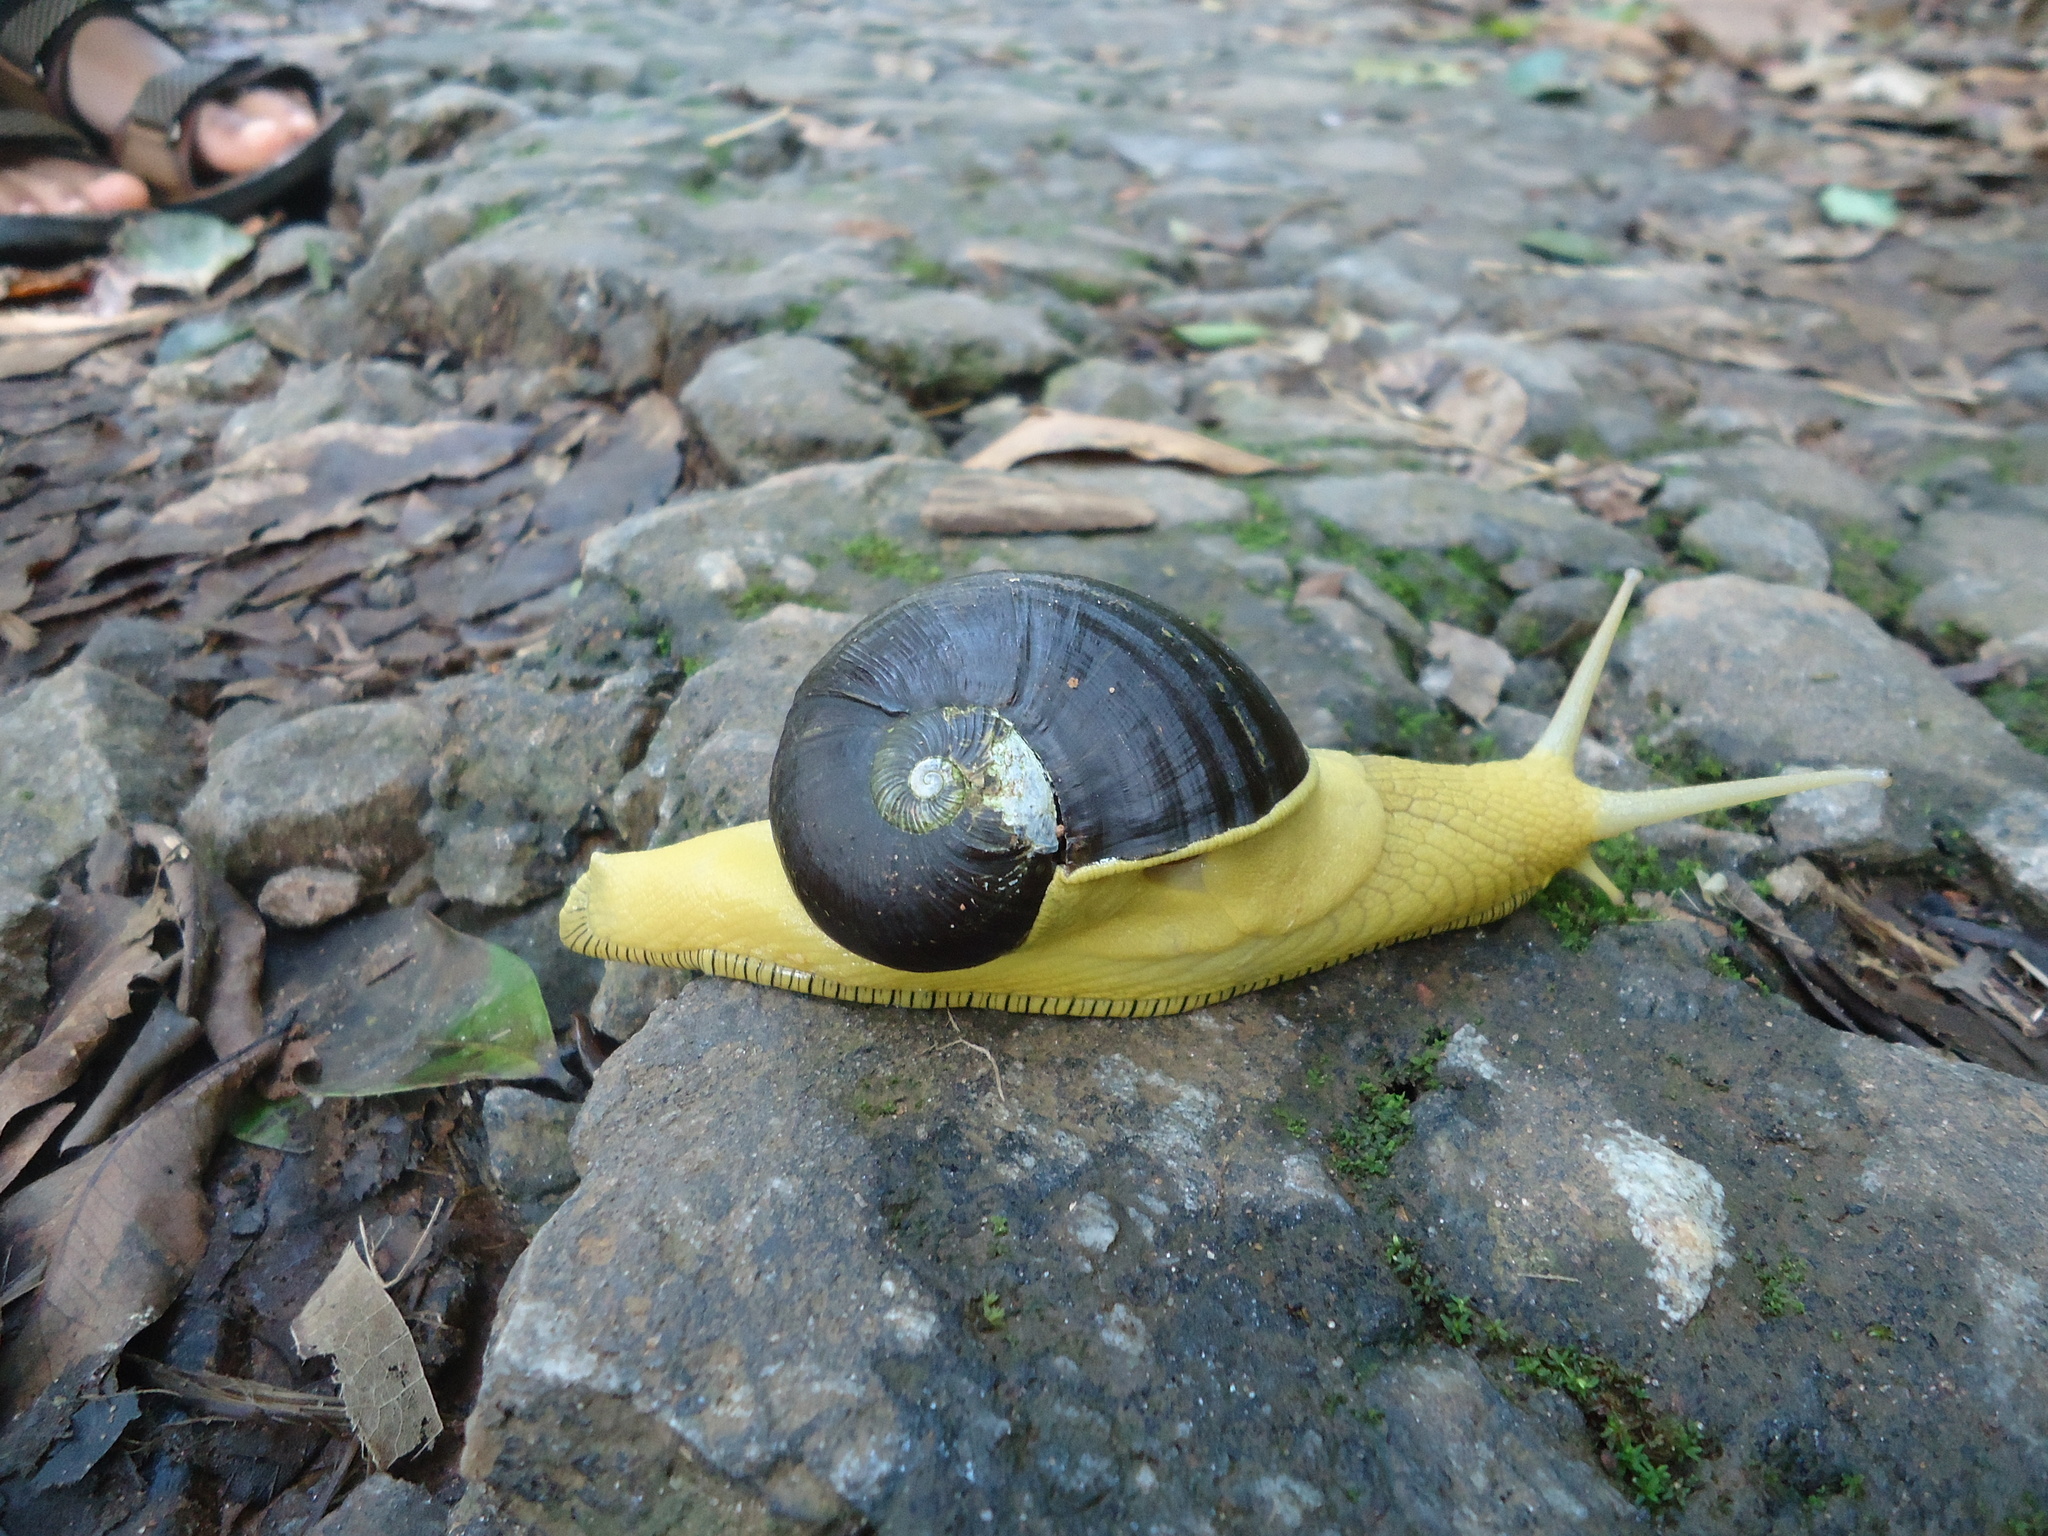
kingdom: Animalia
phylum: Mollusca
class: Gastropoda
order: Stylommatophora
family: Ariophantidae
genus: Indrella
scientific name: Indrella ampulla
